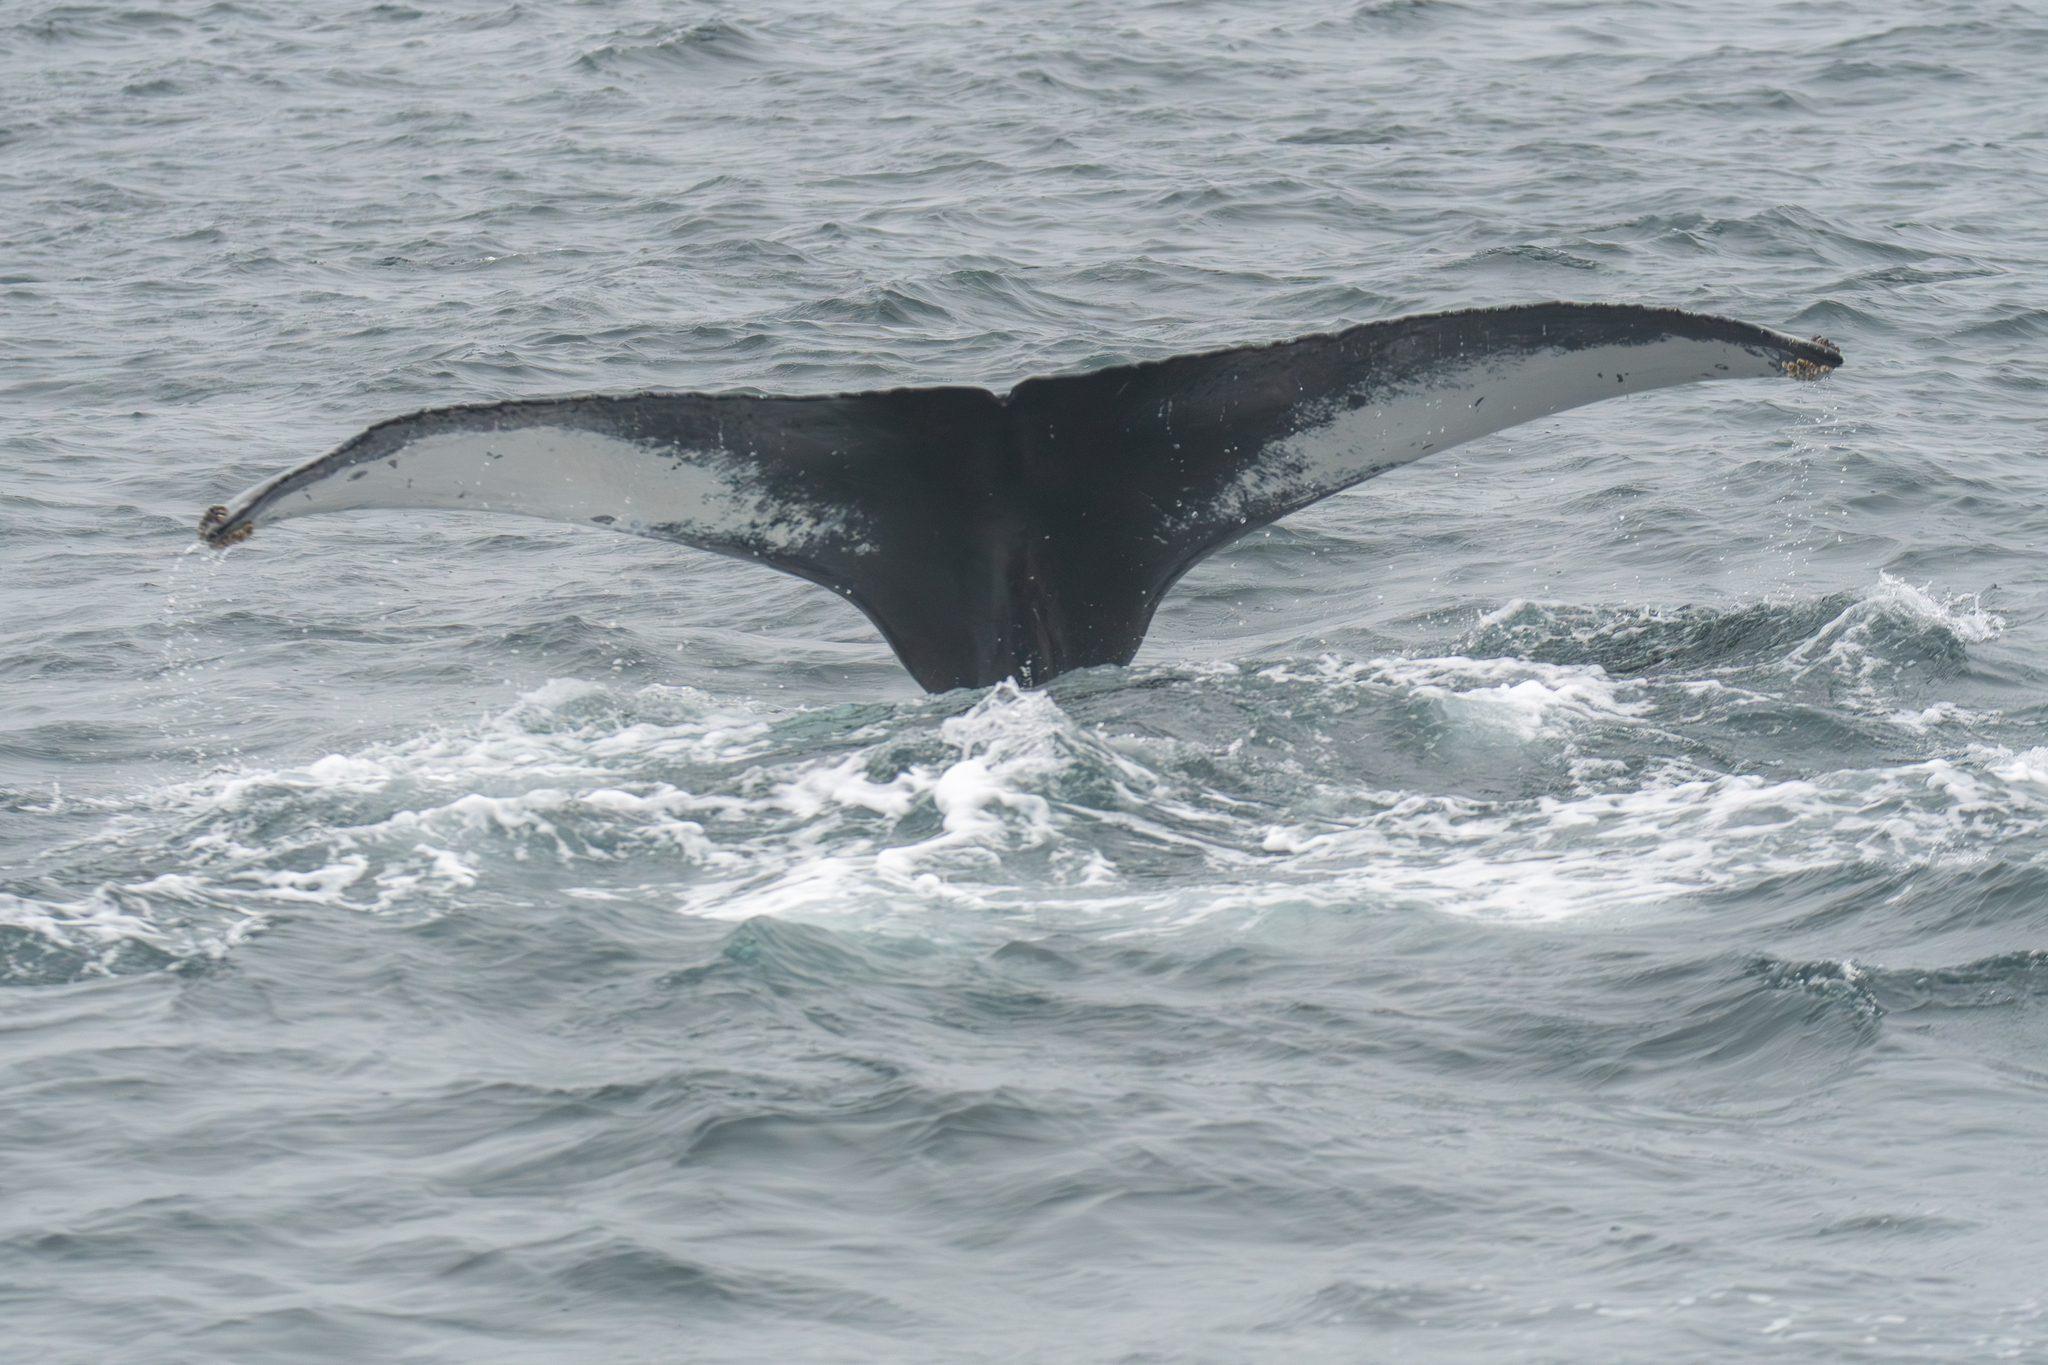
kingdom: Animalia
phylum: Chordata
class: Mammalia
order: Cetacea
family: Balaenopteridae
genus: Megaptera
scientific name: Megaptera novaeangliae
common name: Humpback whale
